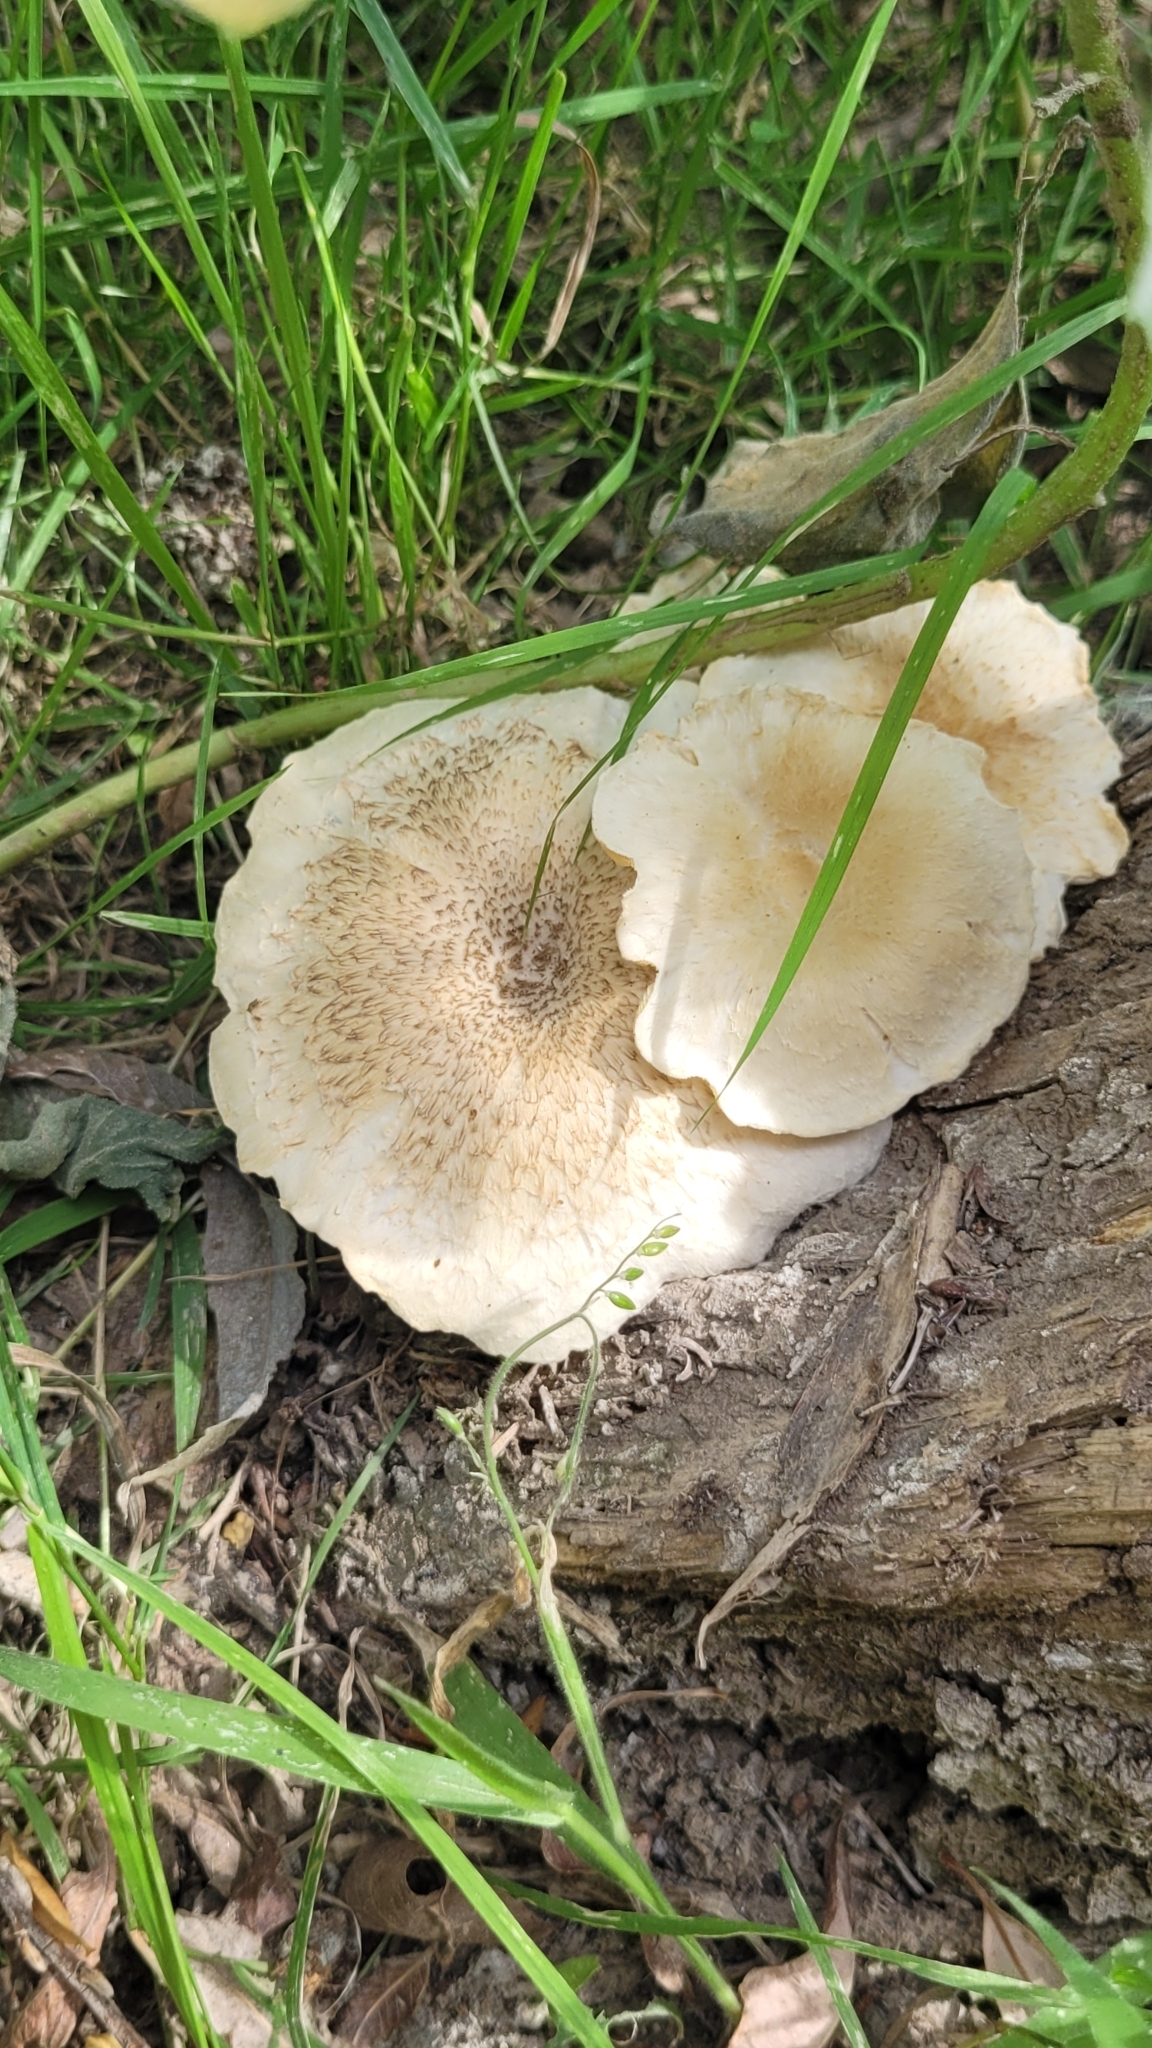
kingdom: Fungi
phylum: Basidiomycota
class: Agaricomycetes
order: Polyporales
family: Polyporaceae
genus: Lentinus
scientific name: Lentinus tigrinus
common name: Tiger sawgill
